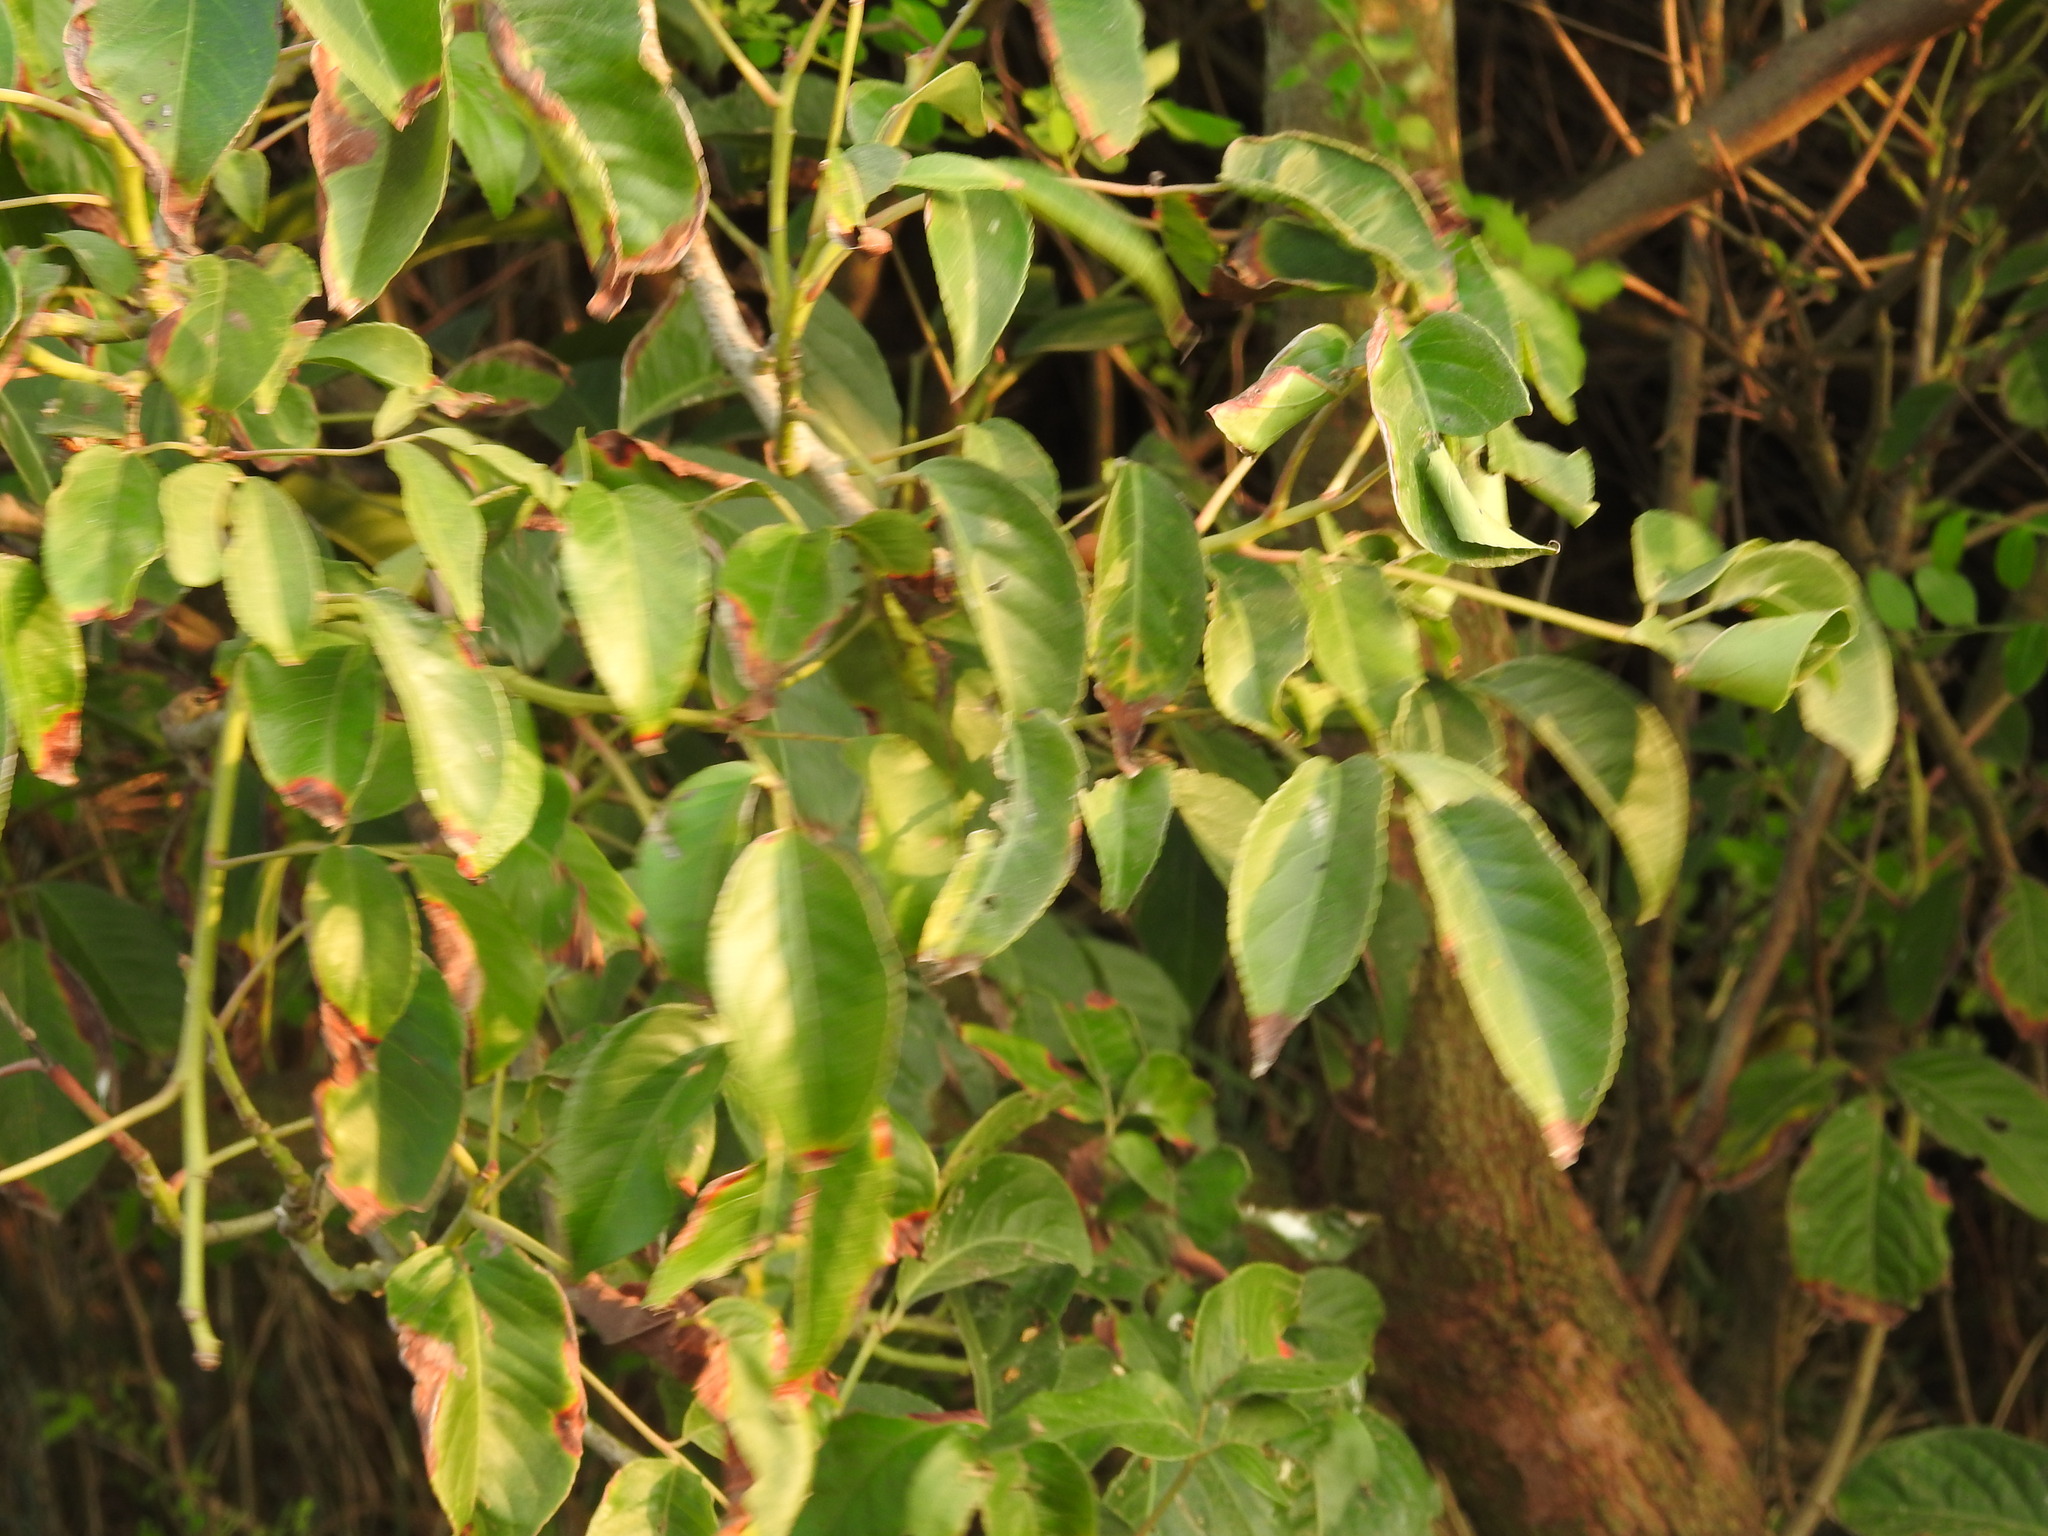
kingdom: Plantae
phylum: Tracheophyta
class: Magnoliopsida
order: Malpighiales
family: Phyllanthaceae
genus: Bischofia
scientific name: Bischofia javanica
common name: Javanese bishopwood
